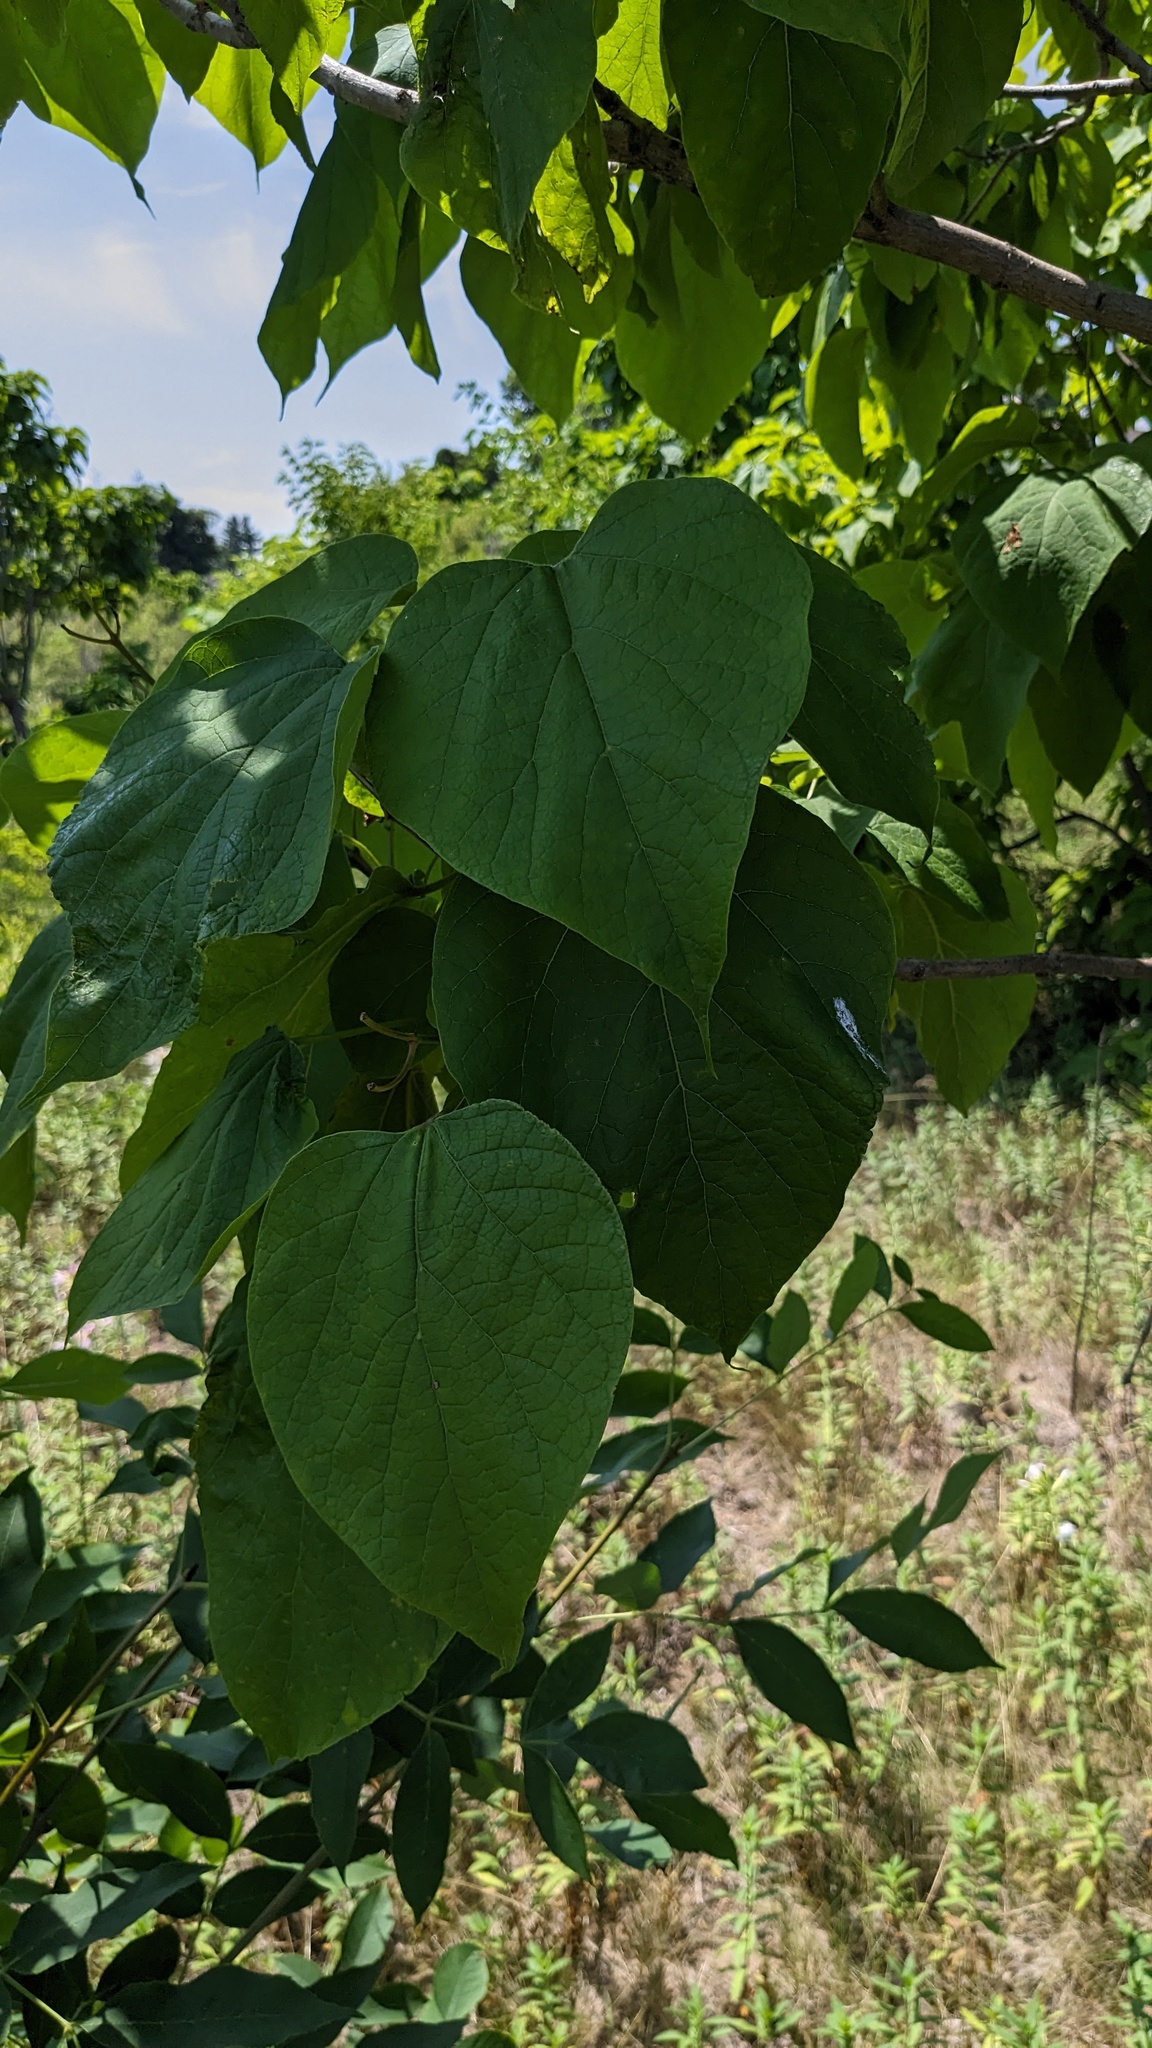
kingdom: Plantae
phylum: Tracheophyta
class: Magnoliopsida
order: Lamiales
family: Bignoniaceae
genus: Catalpa
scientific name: Catalpa speciosa
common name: Northern catalpa
